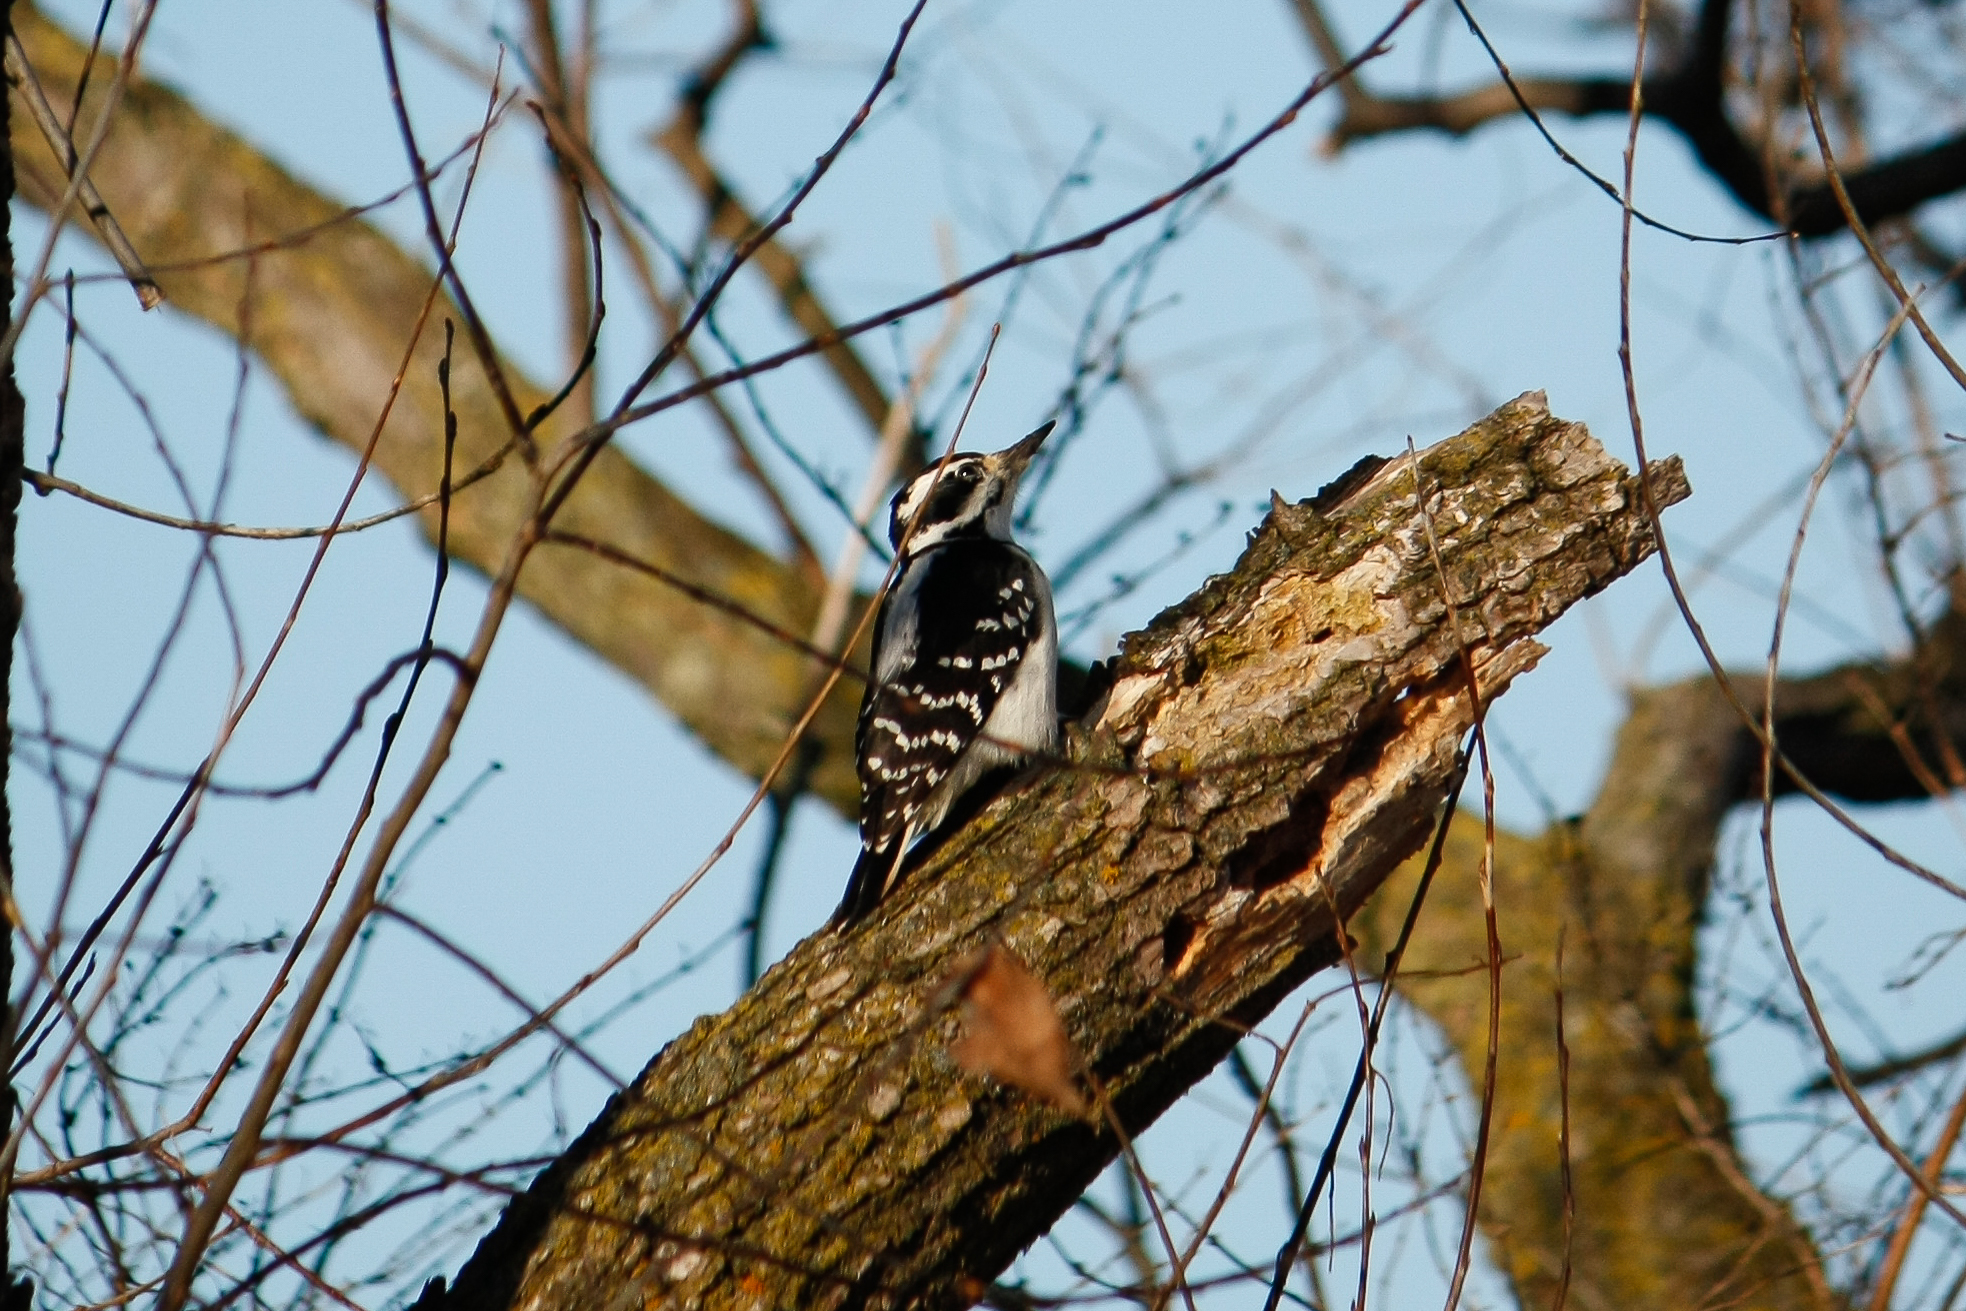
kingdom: Animalia
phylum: Chordata
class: Aves
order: Piciformes
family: Picidae
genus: Leuconotopicus
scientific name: Leuconotopicus villosus
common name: Hairy woodpecker
